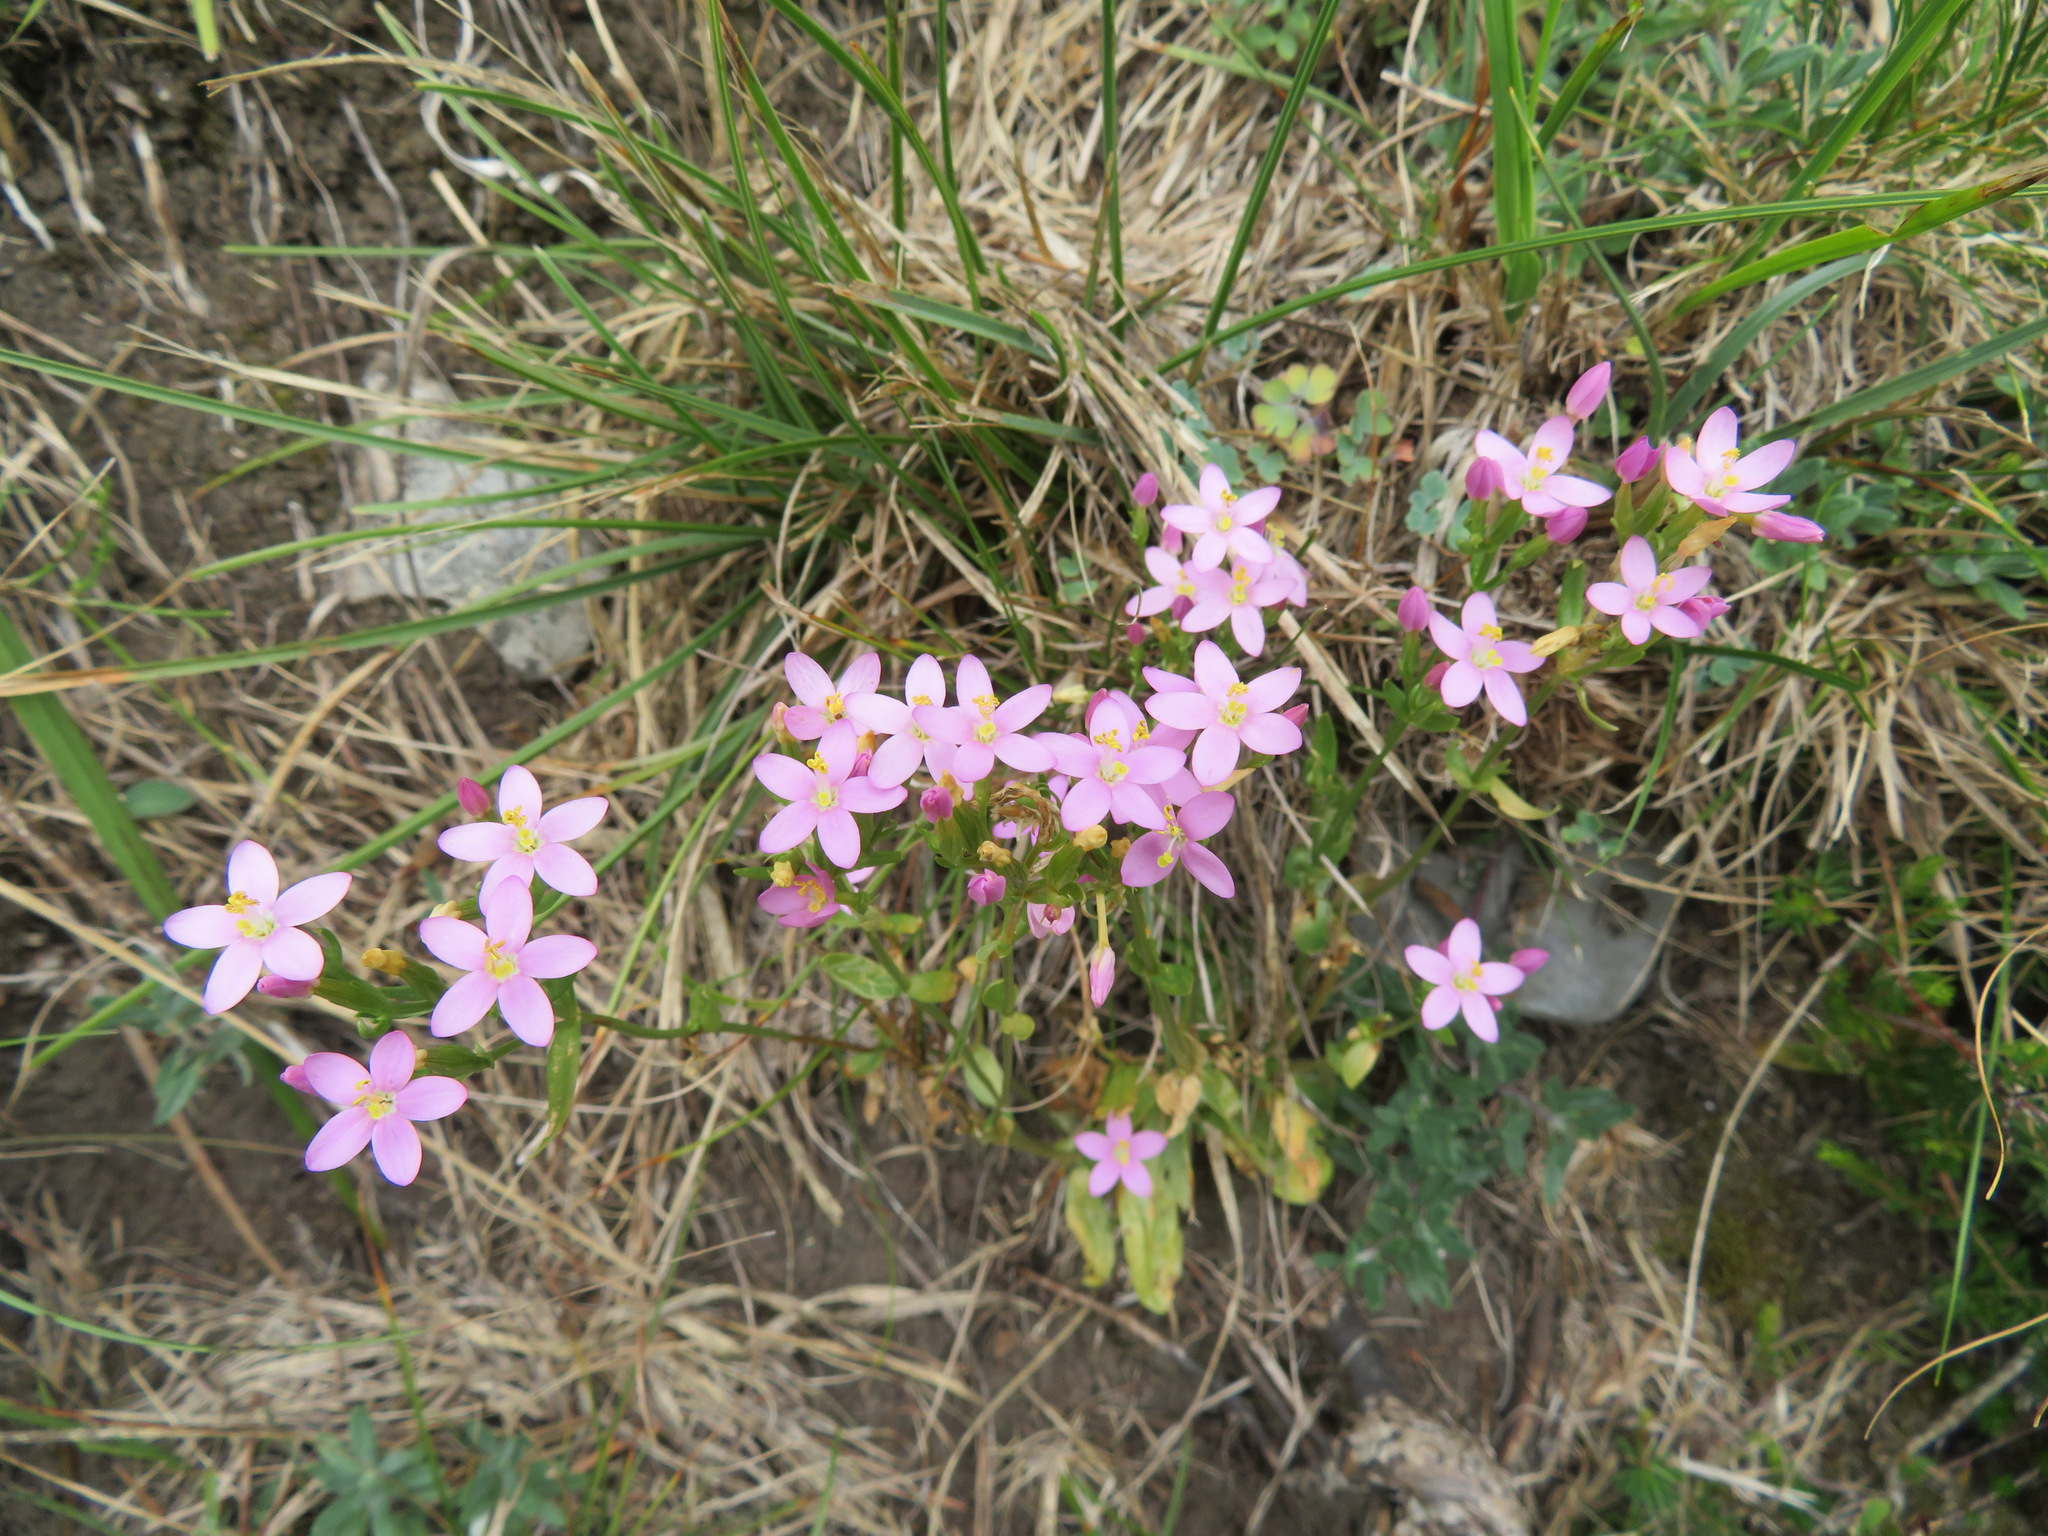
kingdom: Plantae
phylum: Tracheophyta
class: Magnoliopsida
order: Gentianales
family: Gentianaceae
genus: Centaurium
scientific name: Centaurium erythraea
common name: Common centaury
